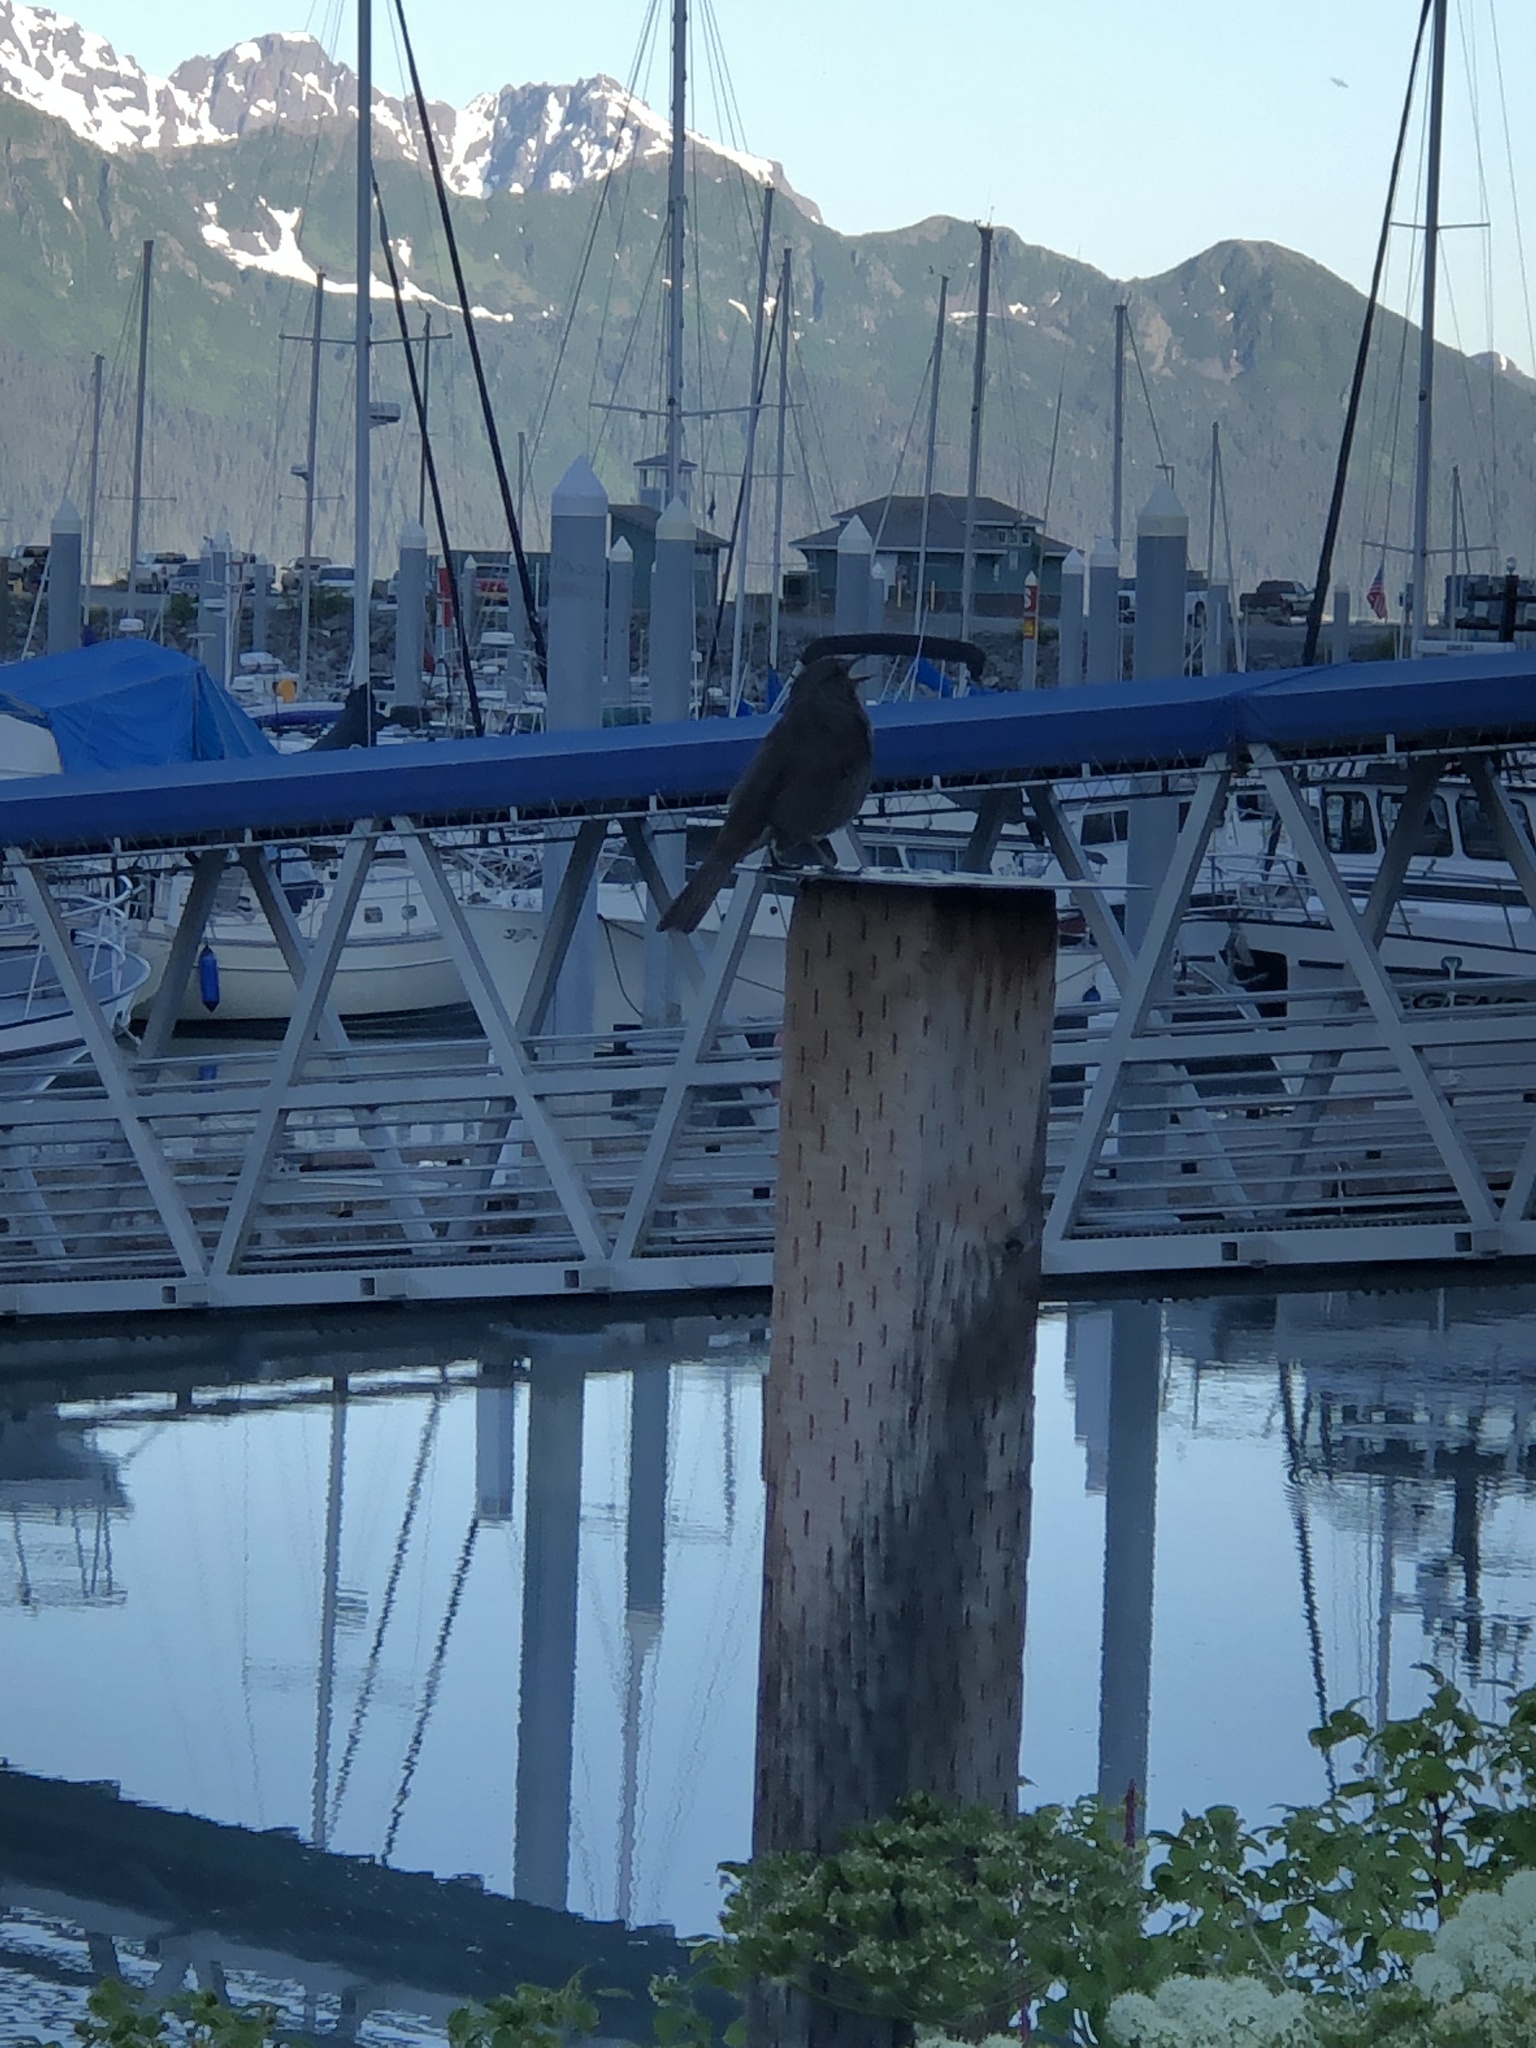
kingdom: Animalia
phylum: Chordata
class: Aves
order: Passeriformes
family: Passerellidae
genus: Melospiza
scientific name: Melospiza melodia
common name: Song sparrow
